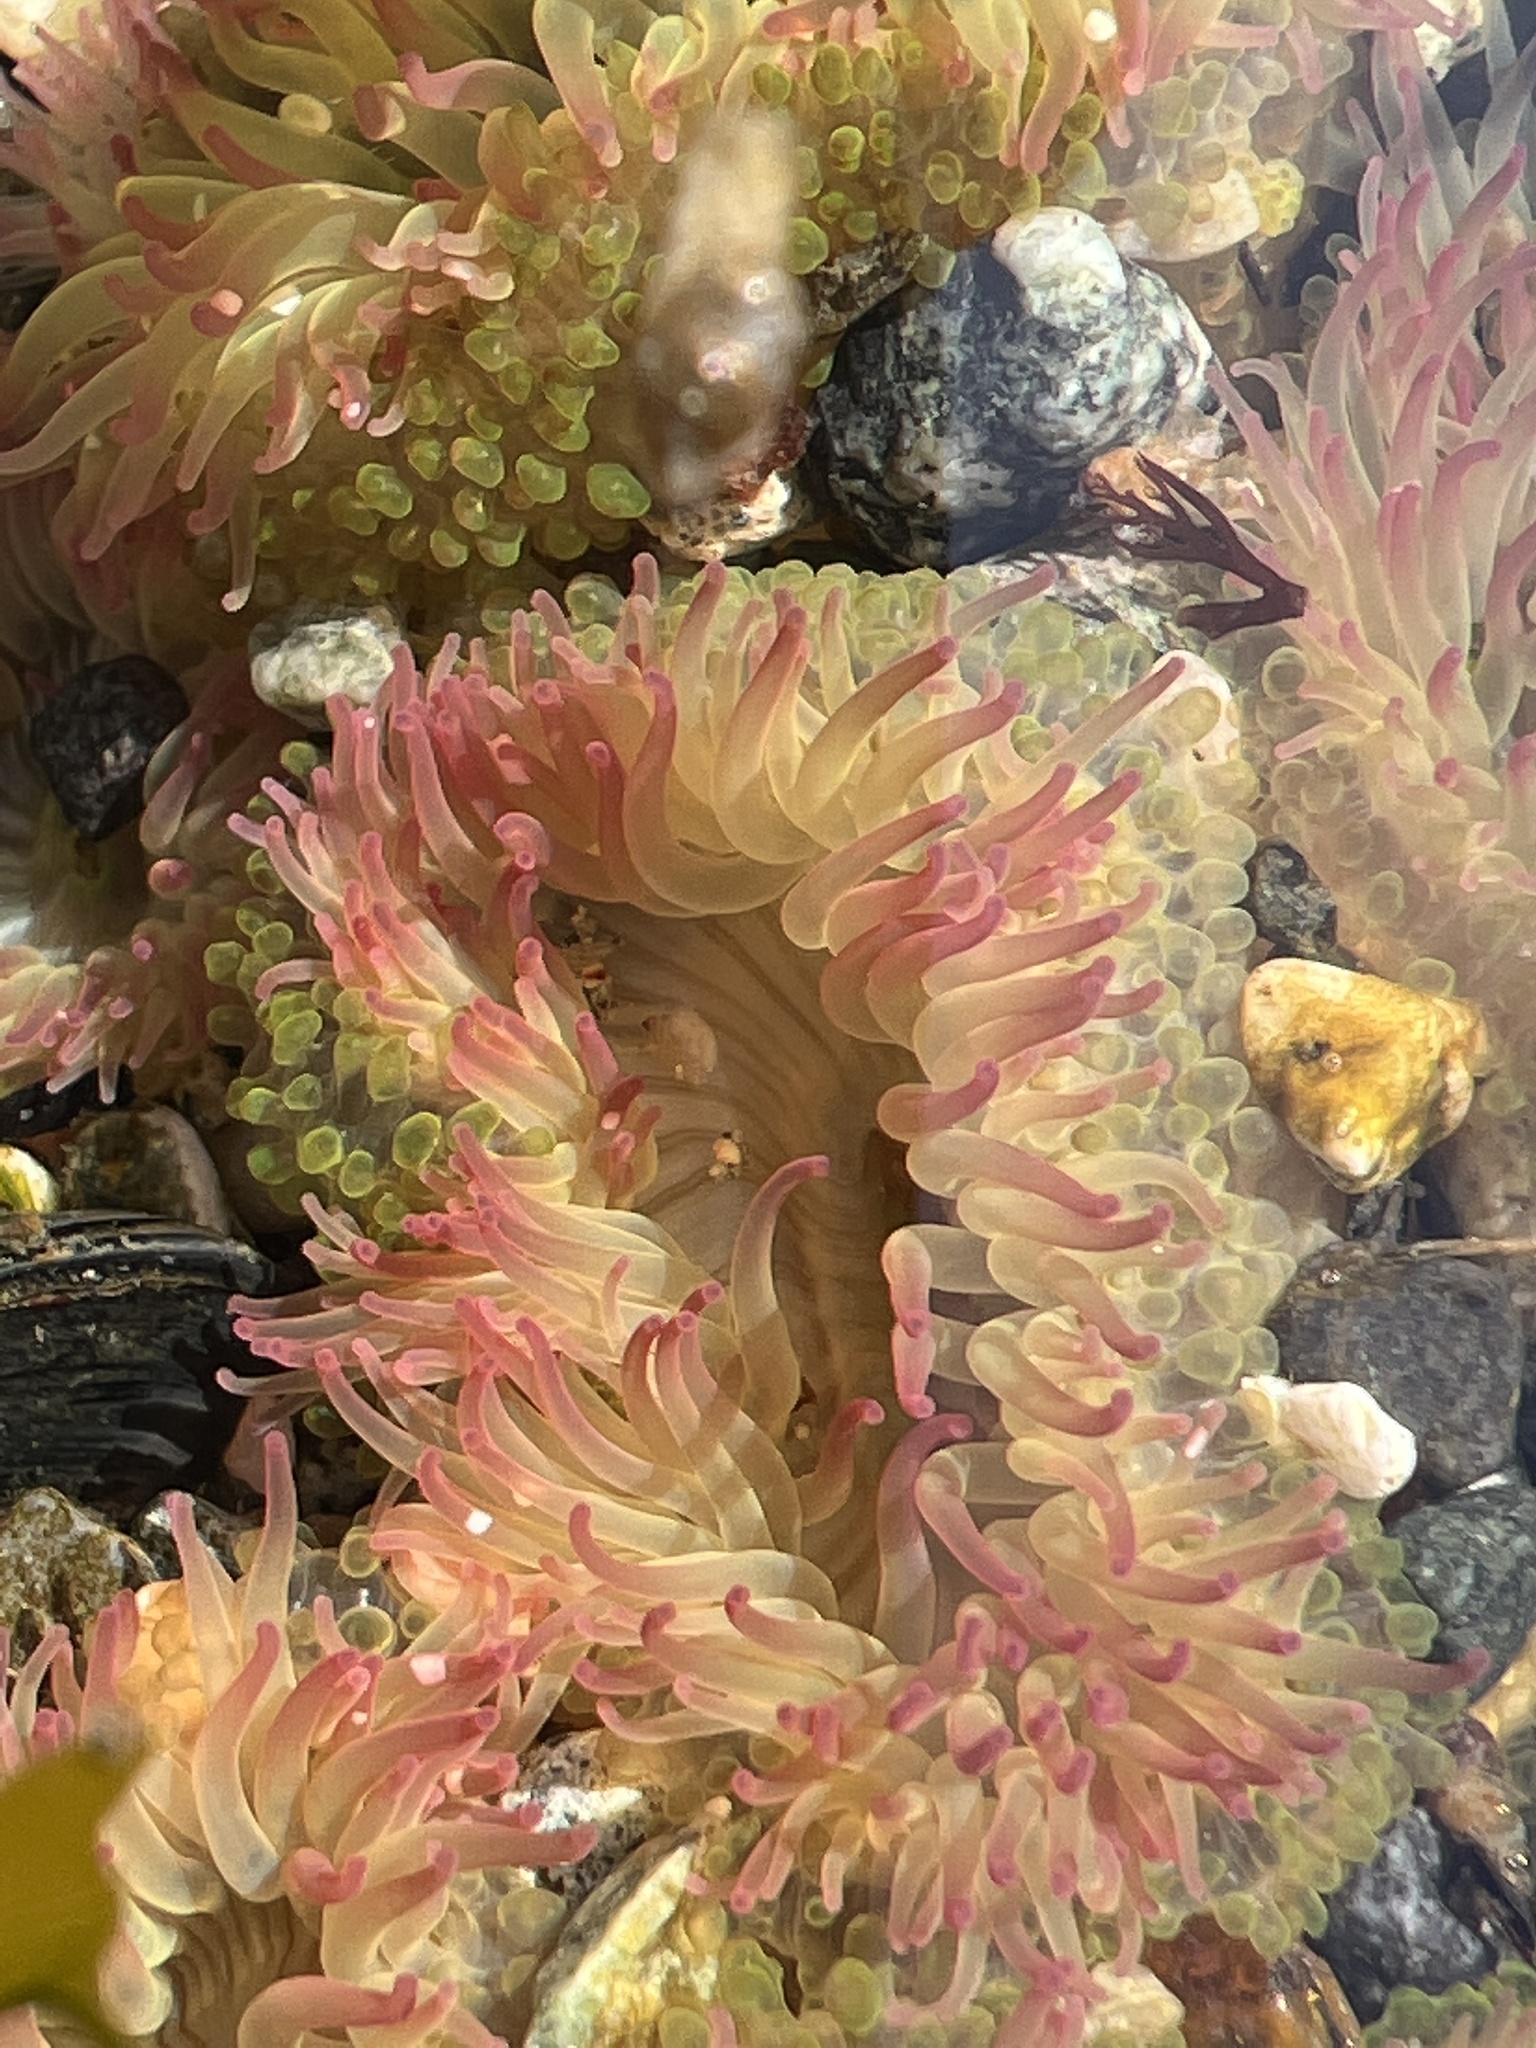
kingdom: Animalia
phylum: Cnidaria
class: Anthozoa
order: Actiniaria
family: Actiniidae
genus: Anthopleura
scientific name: Anthopleura elegantissima
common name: Clonal anemone
